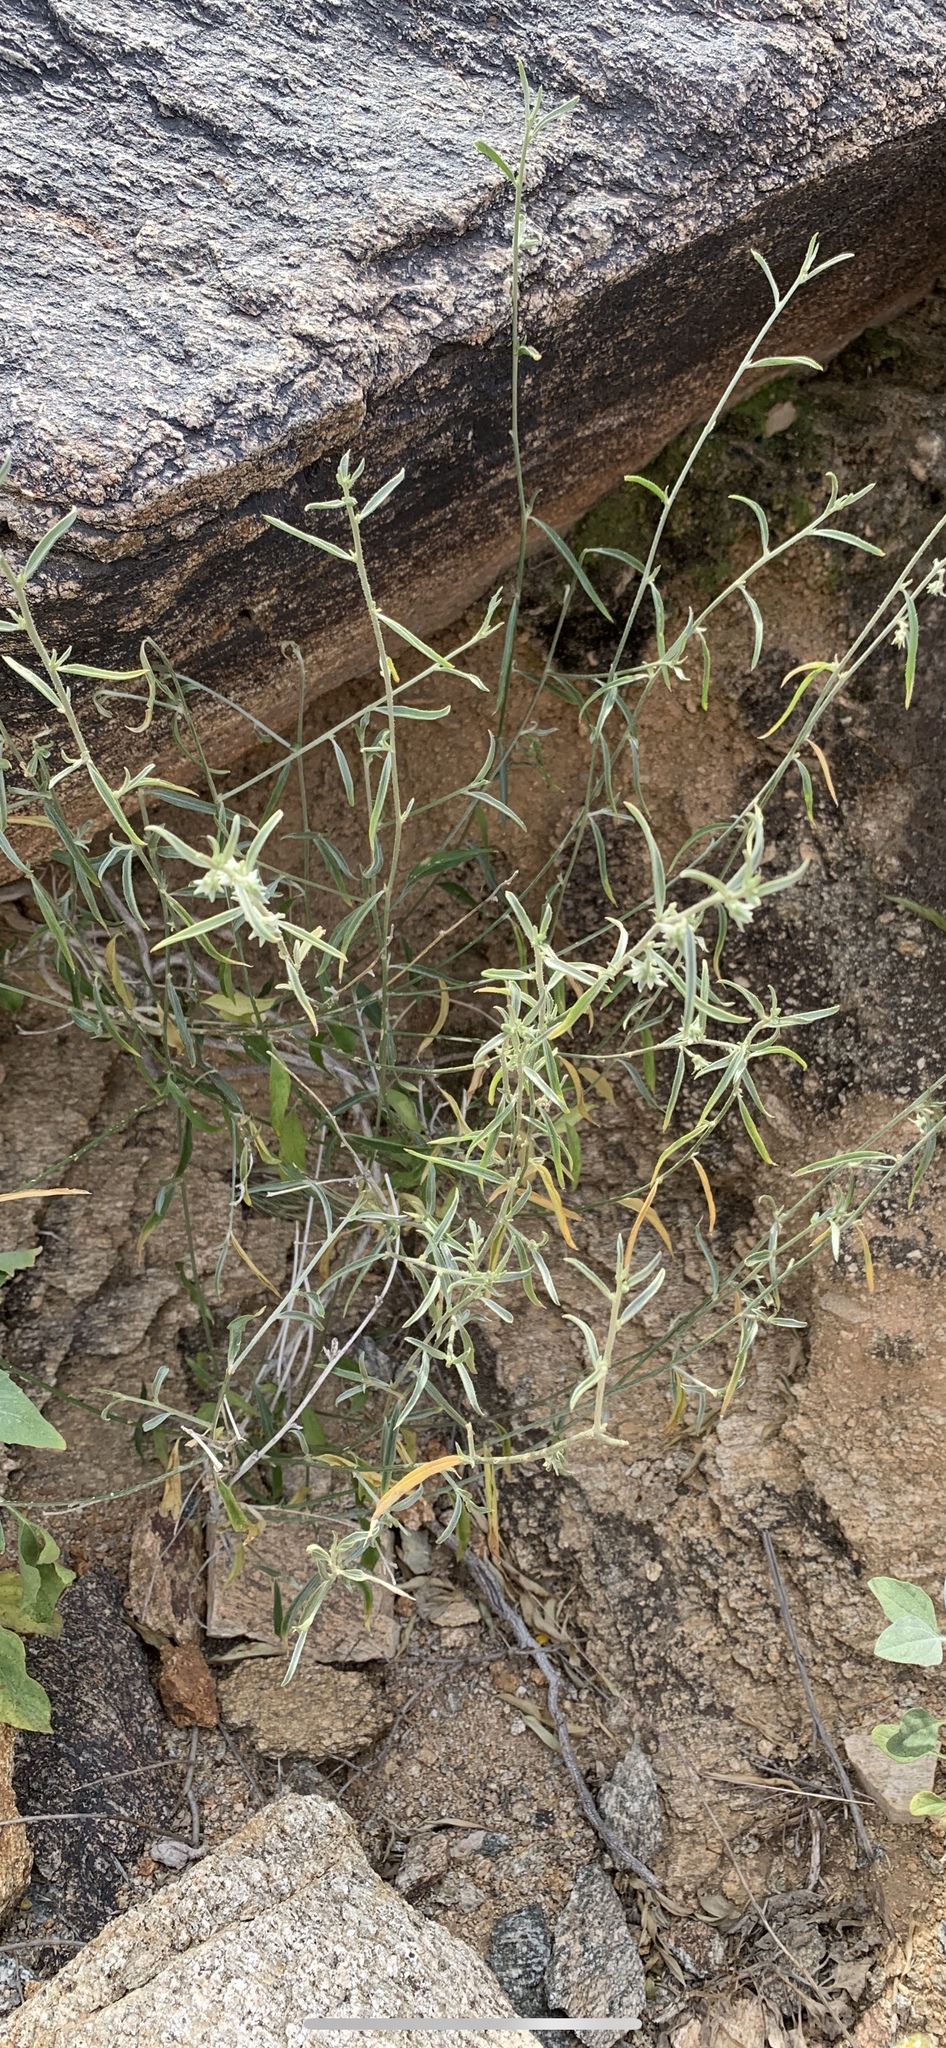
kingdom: Plantae
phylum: Tracheophyta
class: Magnoliopsida
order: Malpighiales
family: Euphorbiaceae
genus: Ditaxis
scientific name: Ditaxis lanceolata
